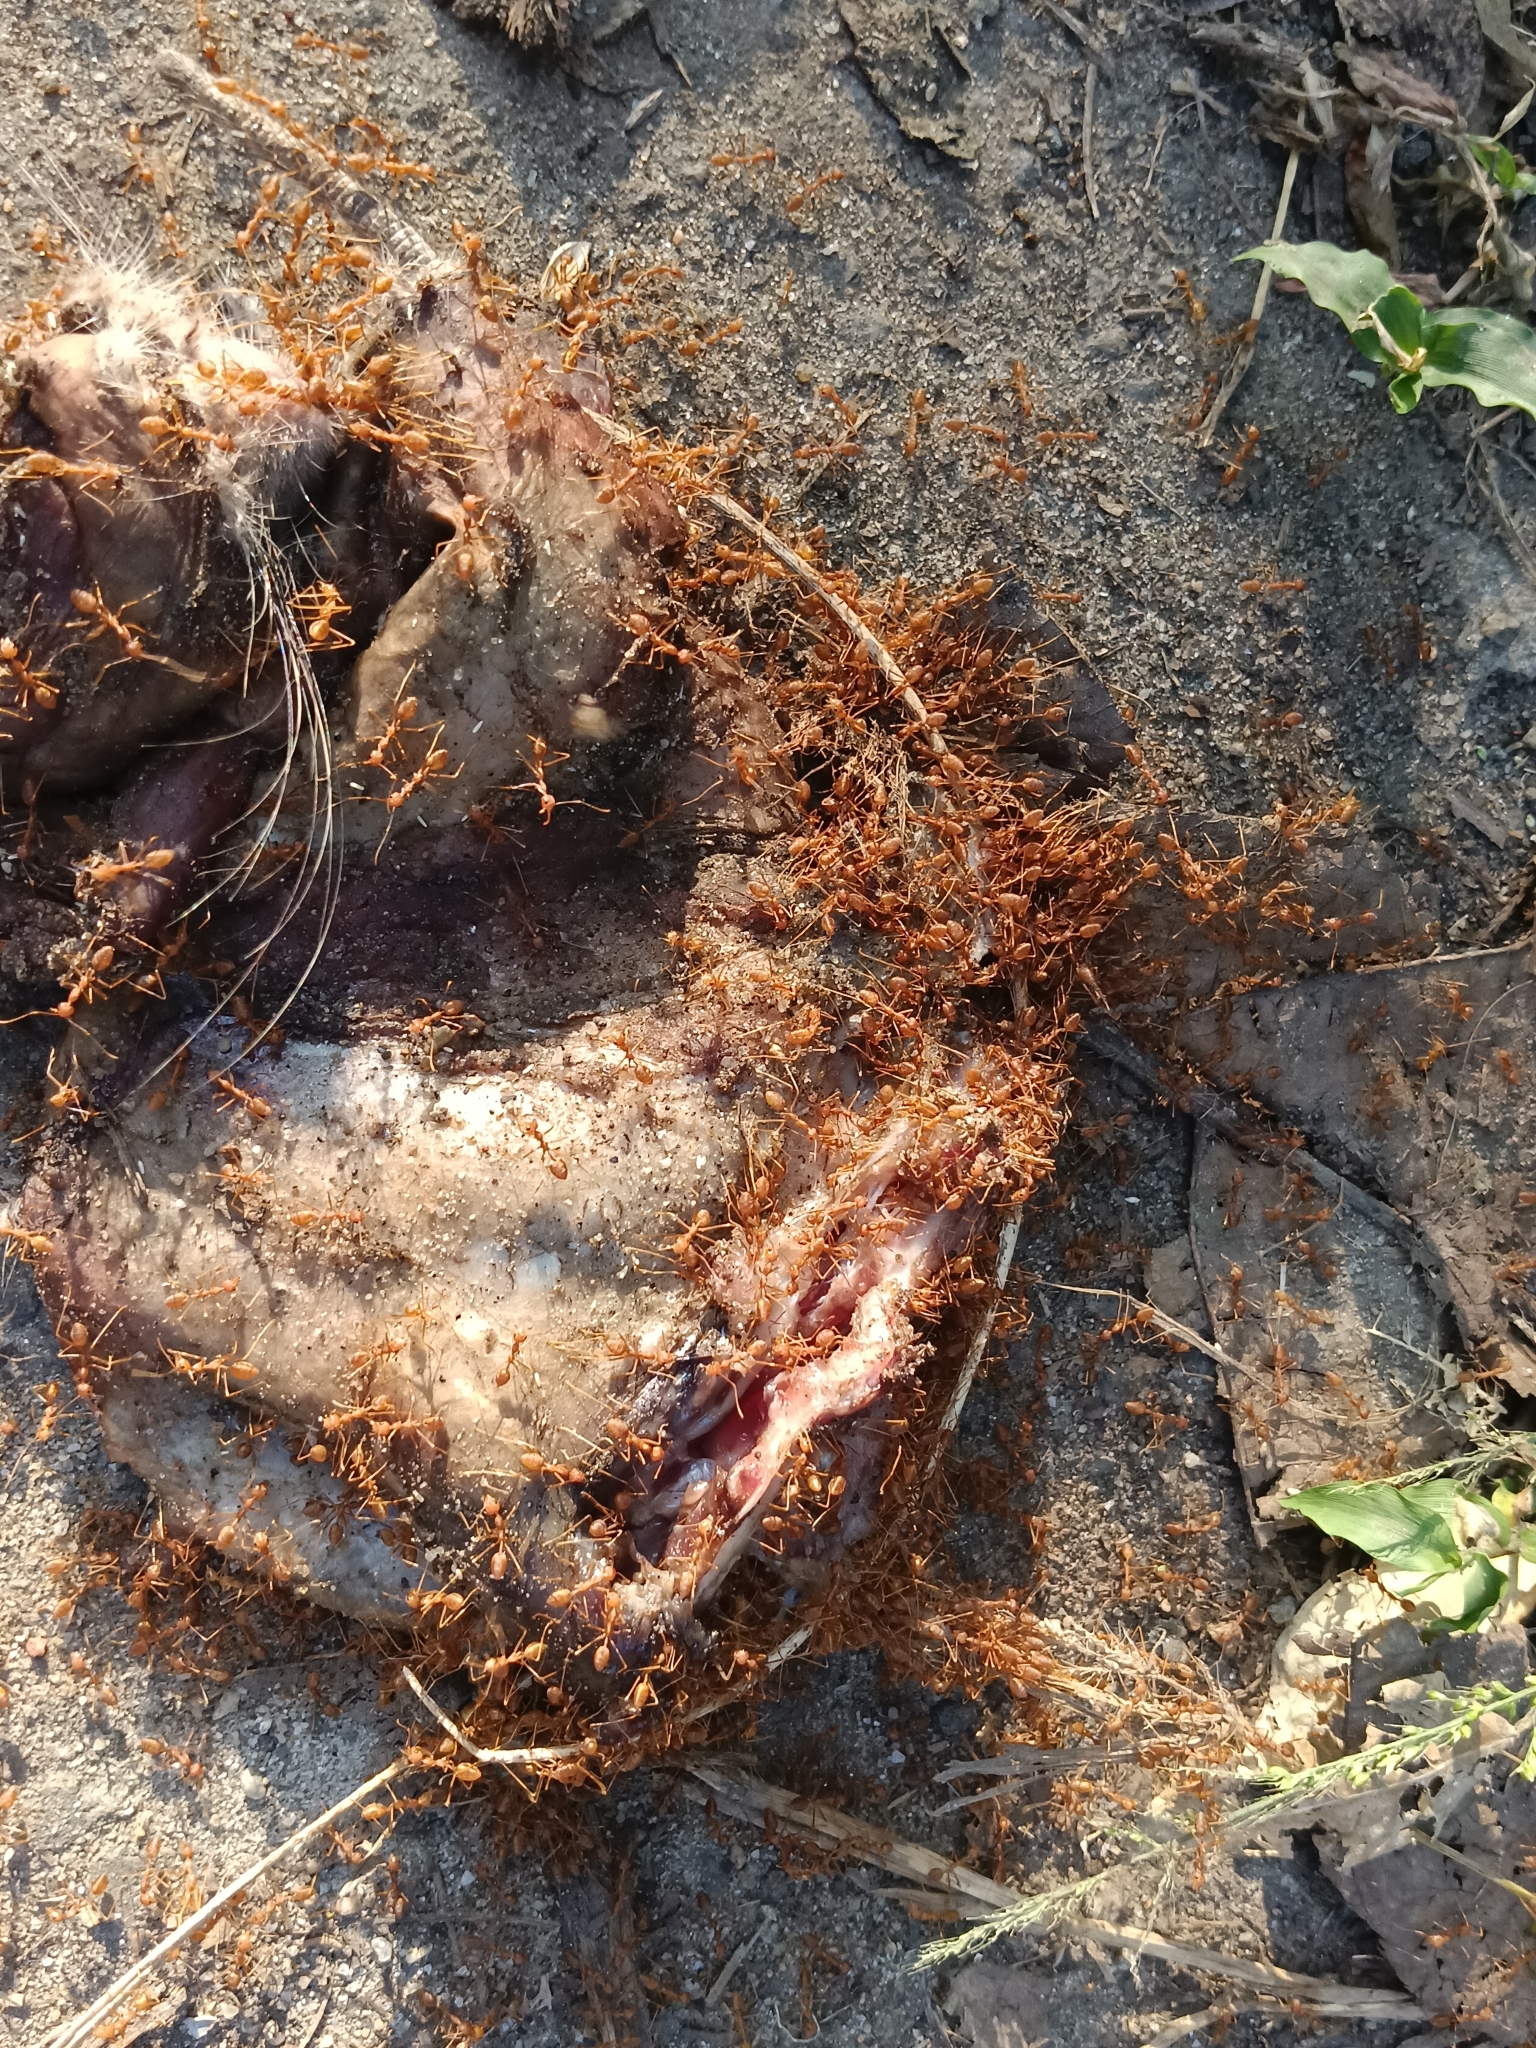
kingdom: Animalia
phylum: Arthropoda
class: Insecta
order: Hymenoptera
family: Formicidae
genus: Oecophylla
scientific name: Oecophylla smaragdina
